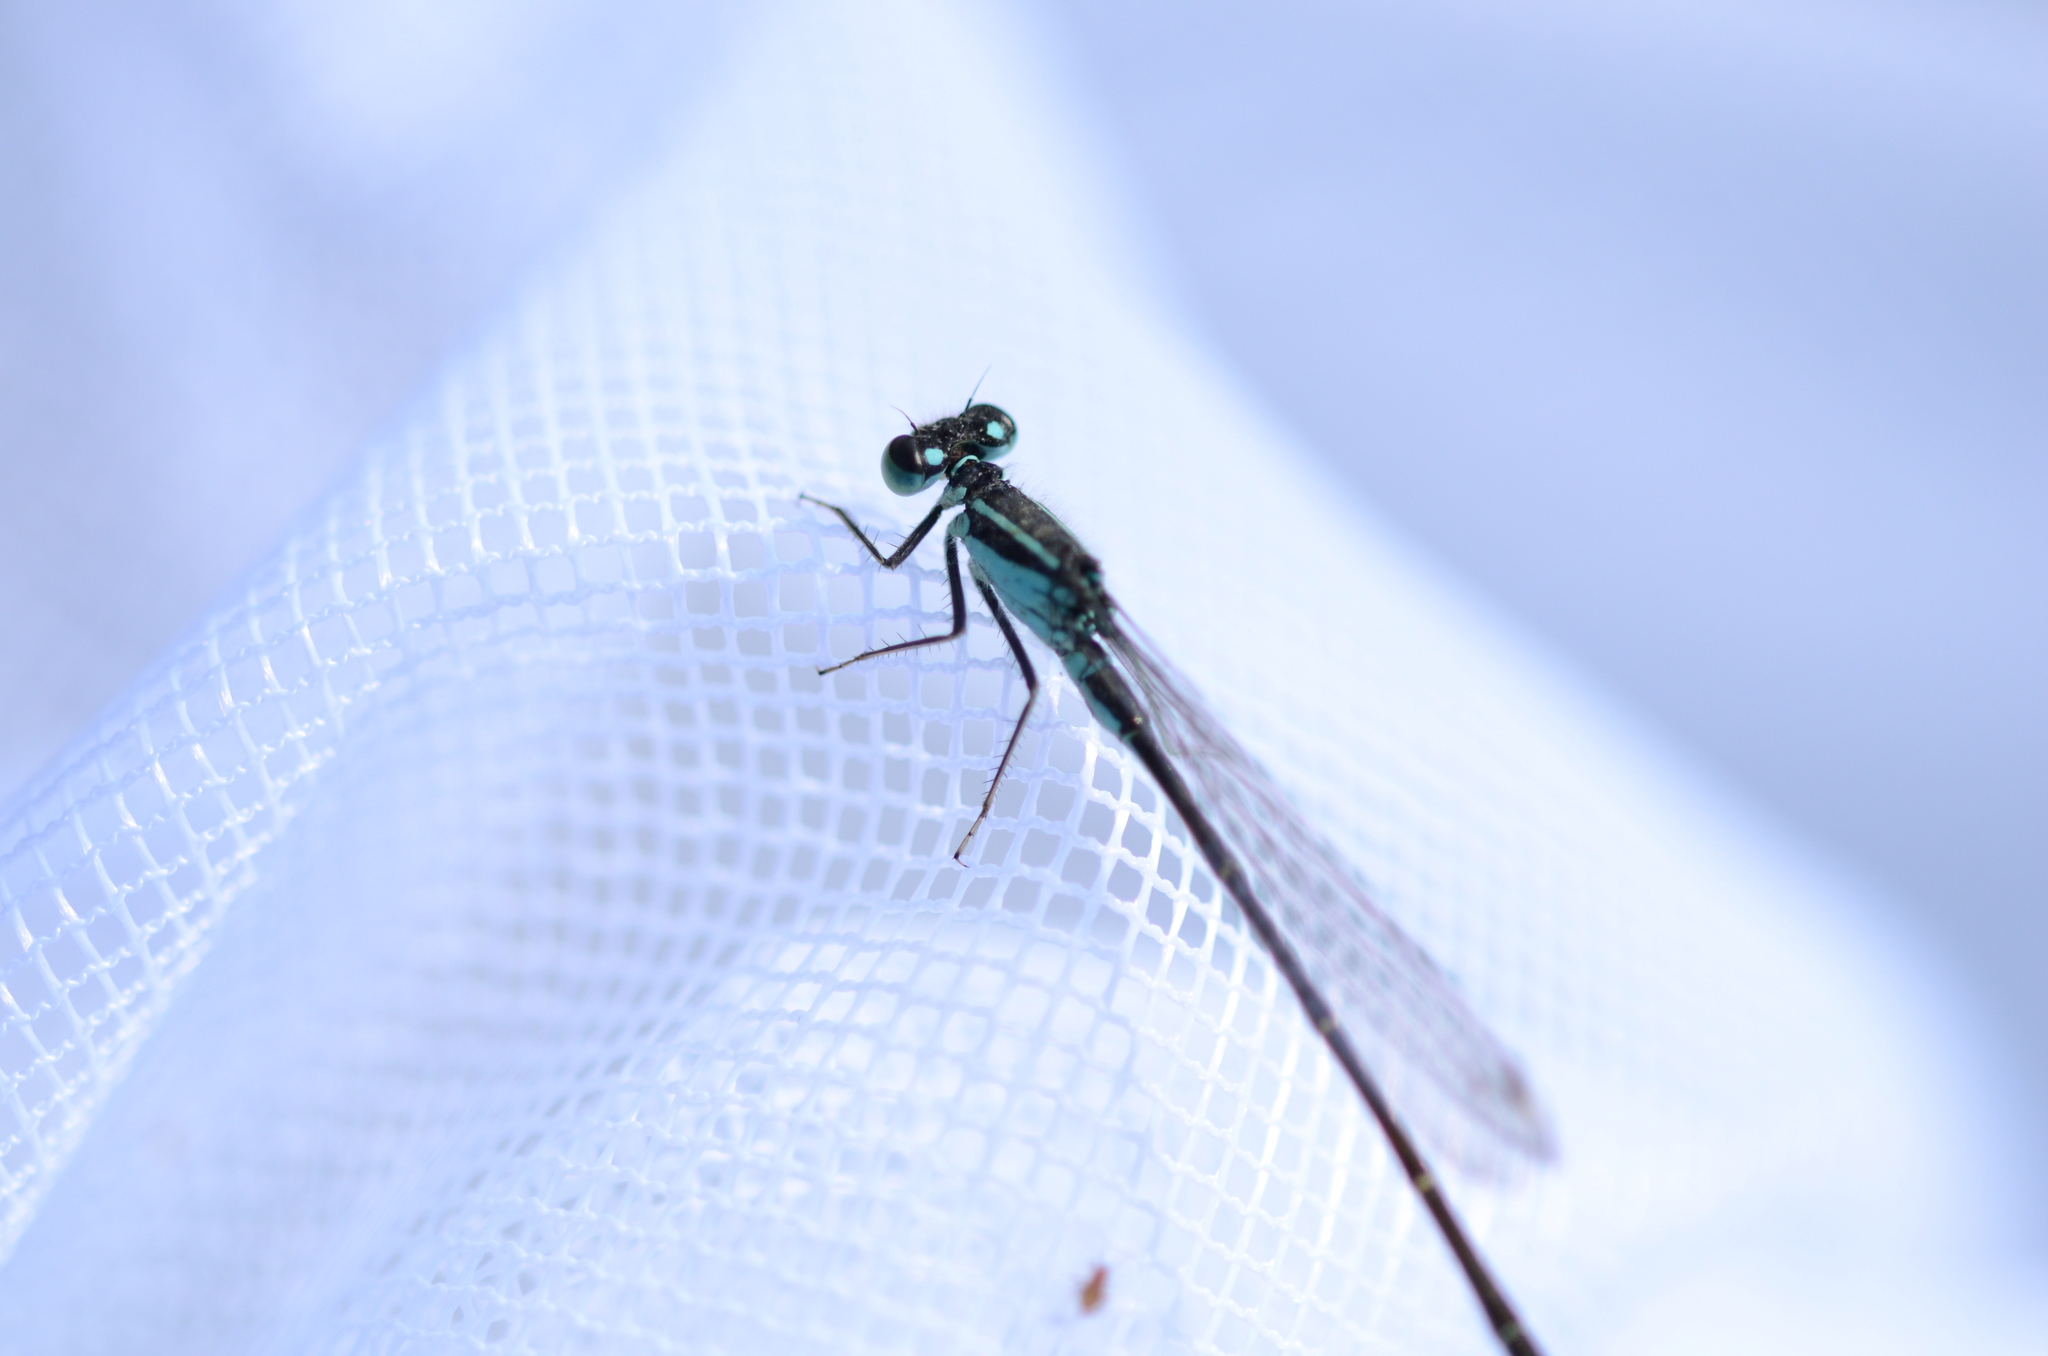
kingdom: Animalia
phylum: Arthropoda
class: Insecta
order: Odonata
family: Coenagrionidae
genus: Ischnura
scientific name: Ischnura elegans
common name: Blue-tailed damselfly
